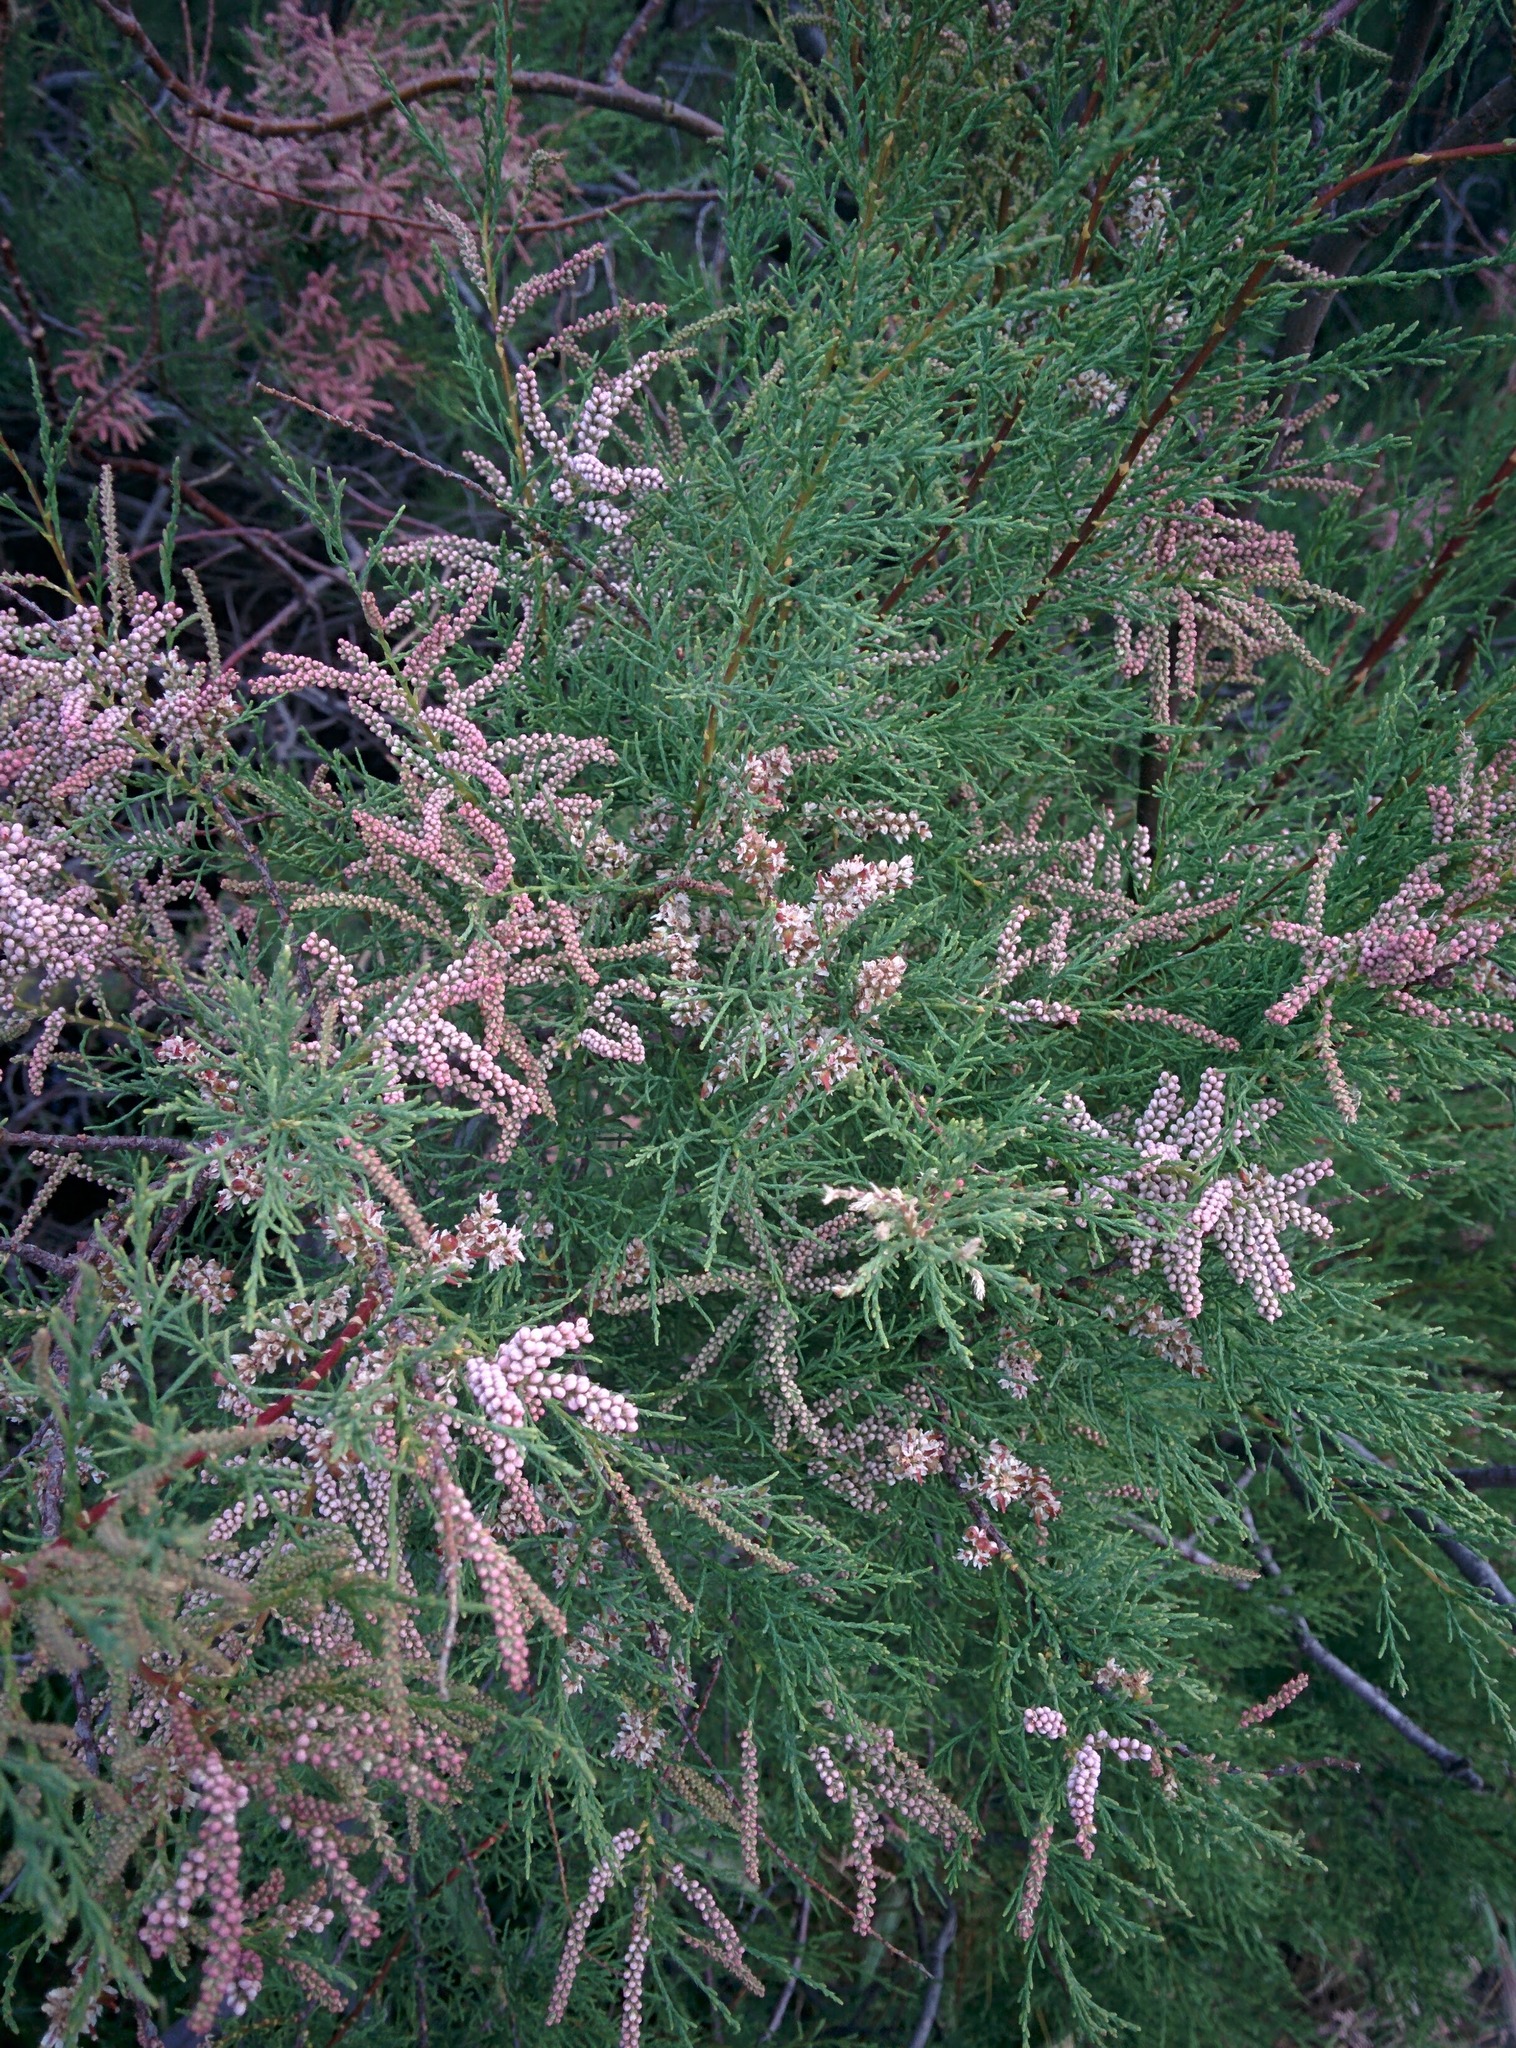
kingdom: Plantae
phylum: Tracheophyta
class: Magnoliopsida
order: Caryophyllales
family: Tamaricaceae
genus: Tamarix
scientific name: Tamarix gallica
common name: Tamarisk
